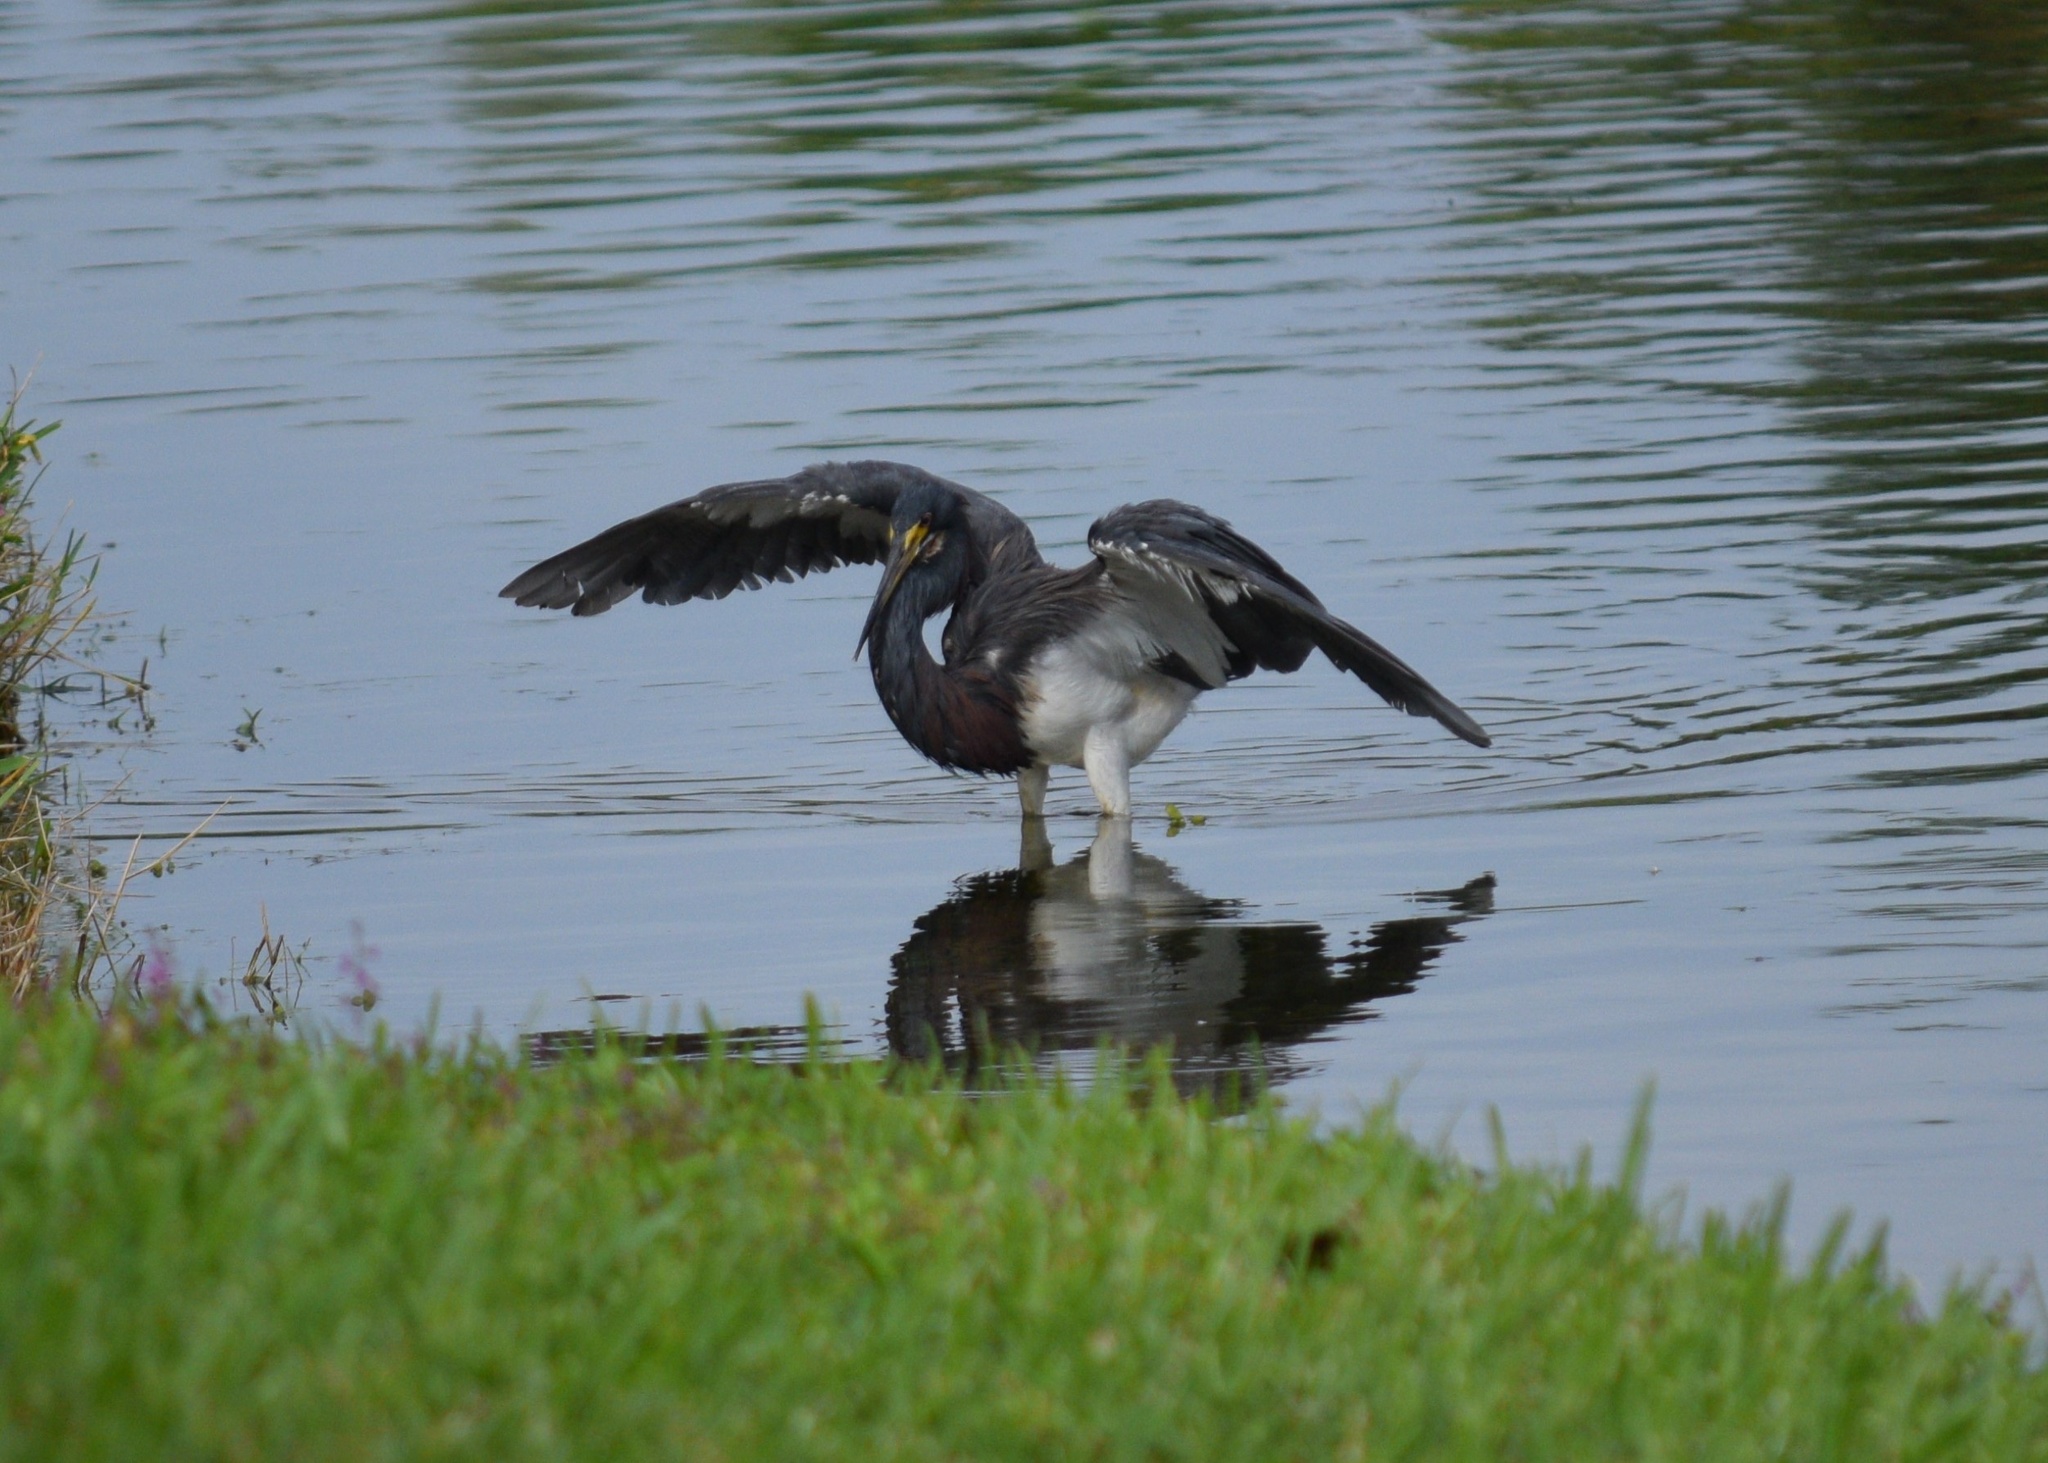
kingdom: Animalia
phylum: Chordata
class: Aves
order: Pelecaniformes
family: Ardeidae
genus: Egretta
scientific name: Egretta tricolor
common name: Tricolored heron
